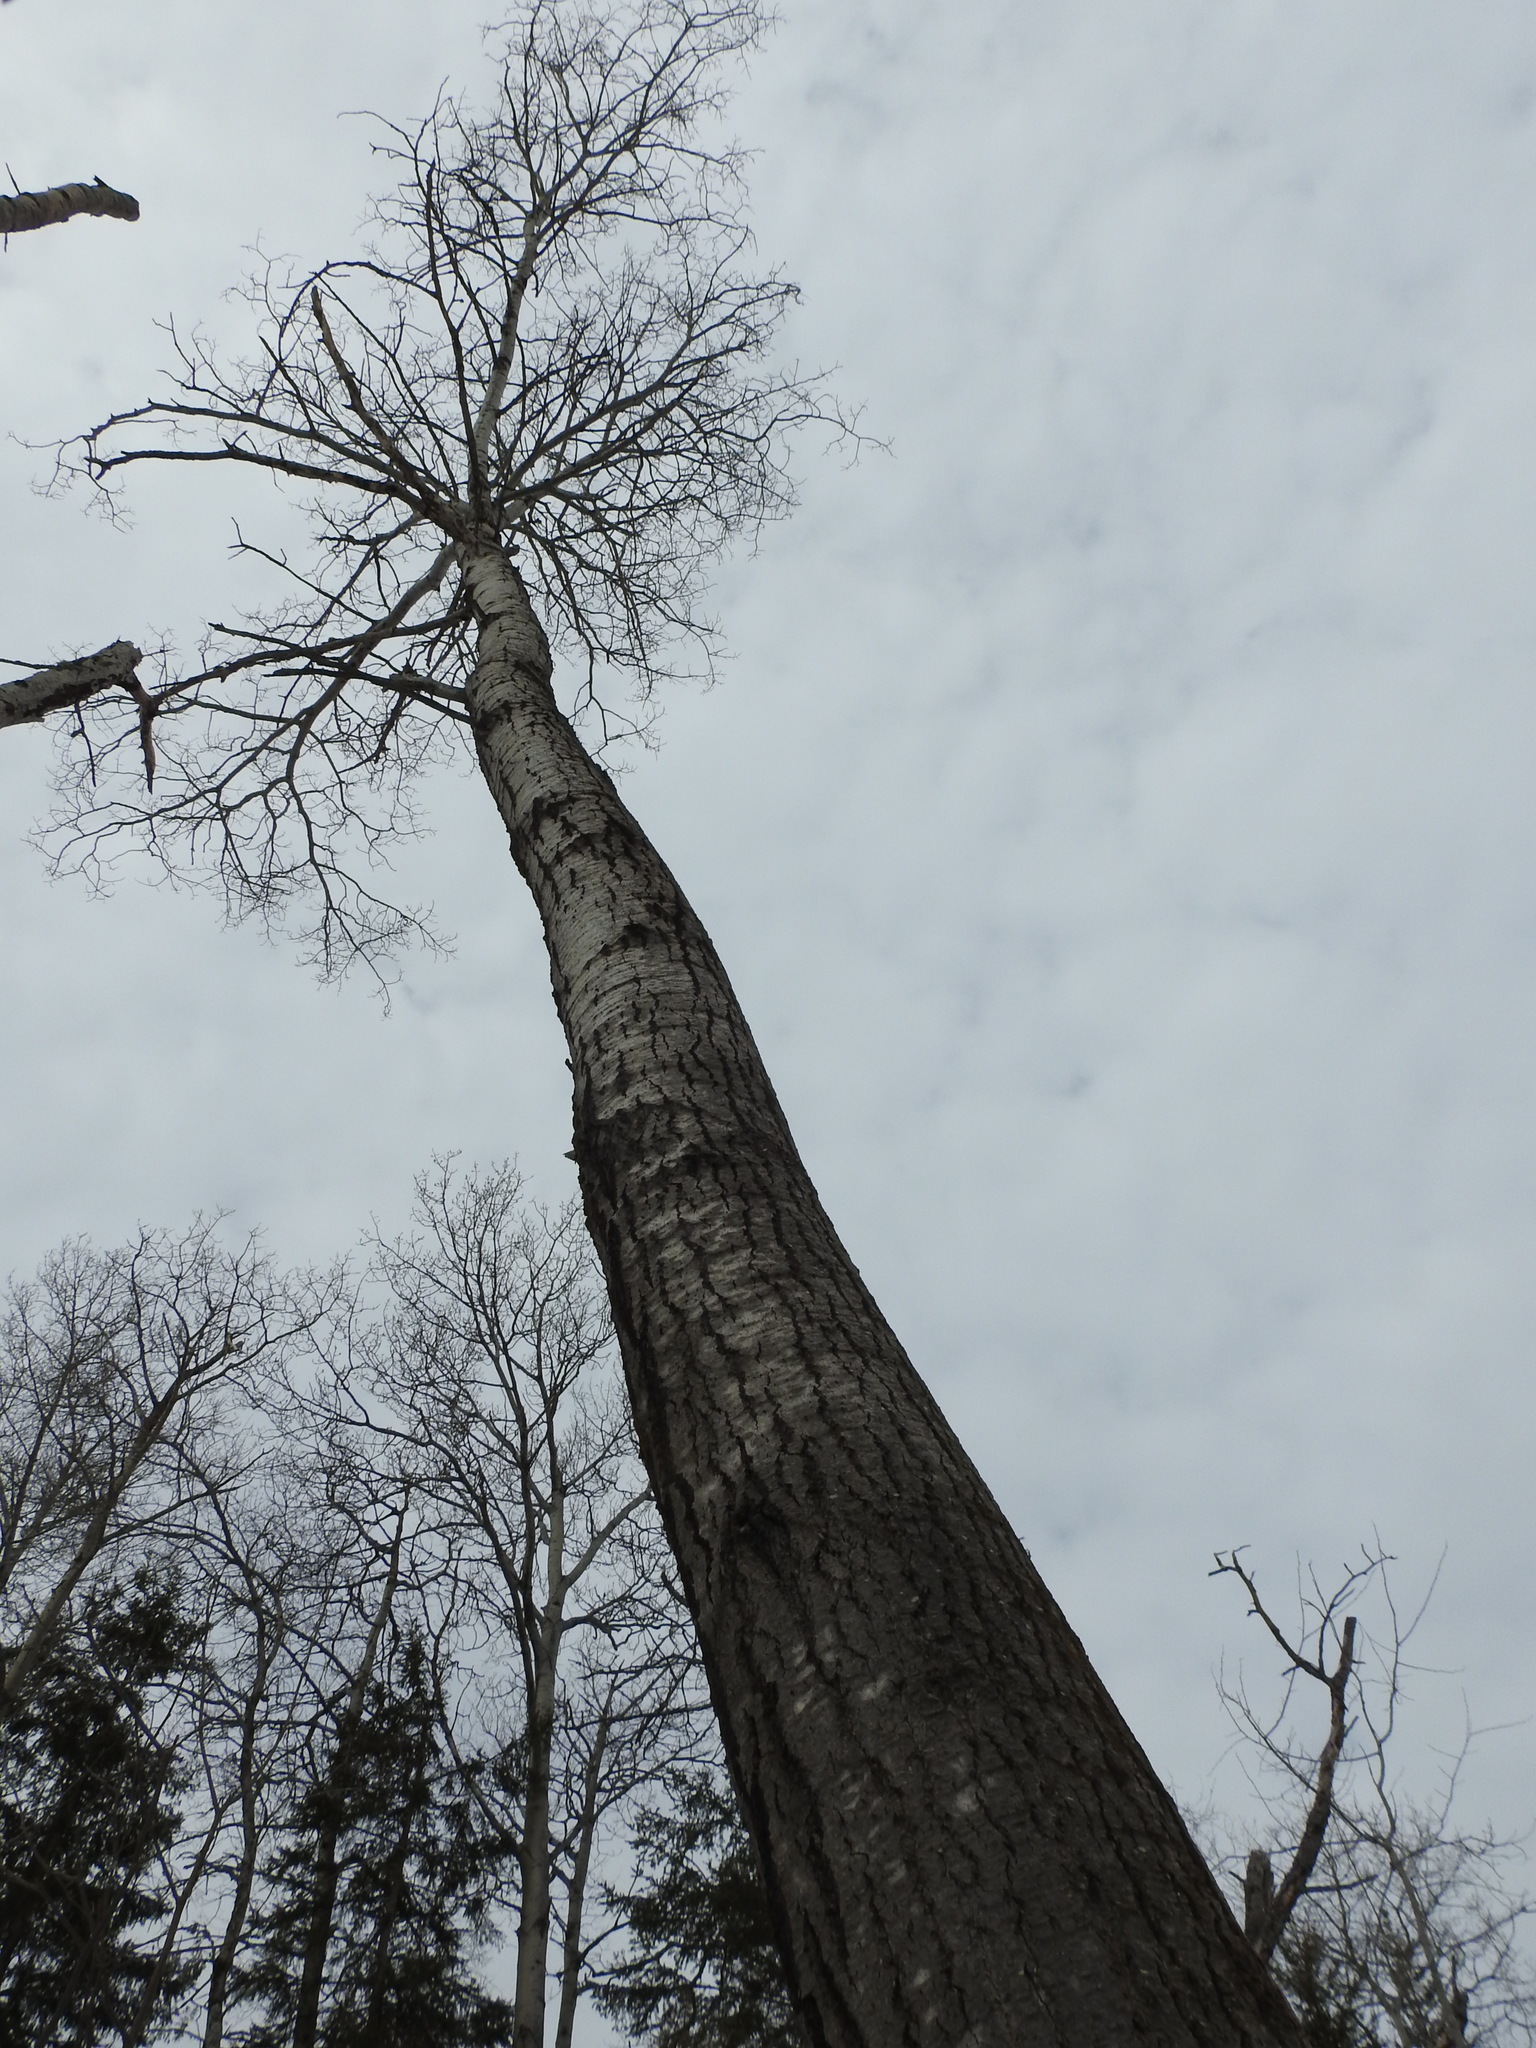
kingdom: Plantae
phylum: Tracheophyta
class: Magnoliopsida
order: Malpighiales
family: Salicaceae
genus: Populus
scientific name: Populus tremuloides
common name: Quaking aspen
